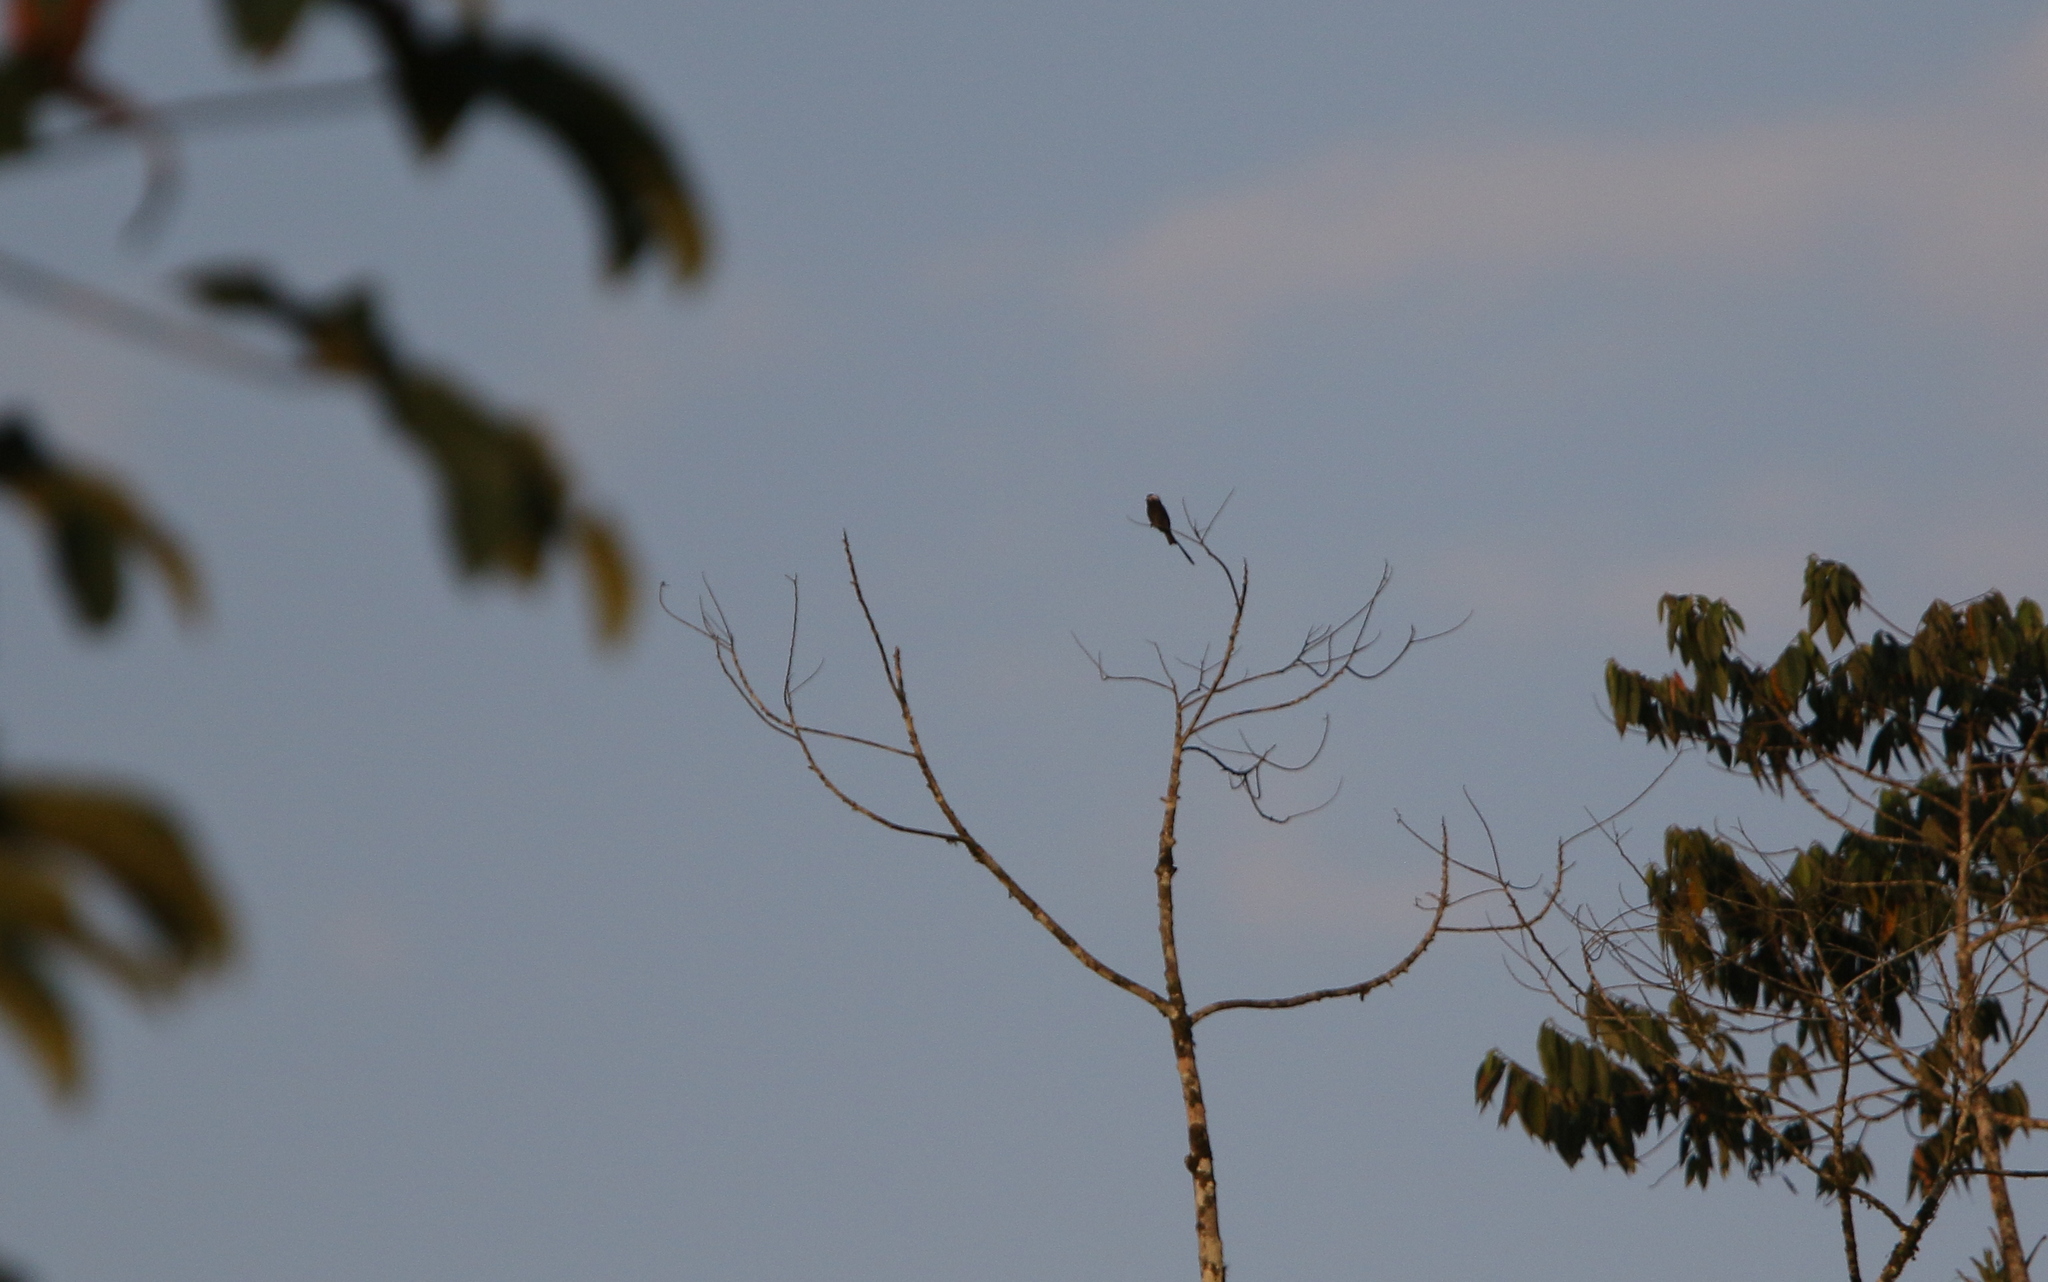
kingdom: Animalia
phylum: Chordata
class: Aves
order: Passeriformes
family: Tyrannidae
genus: Colonia
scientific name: Colonia colonus
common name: Long-tailed tyrant
